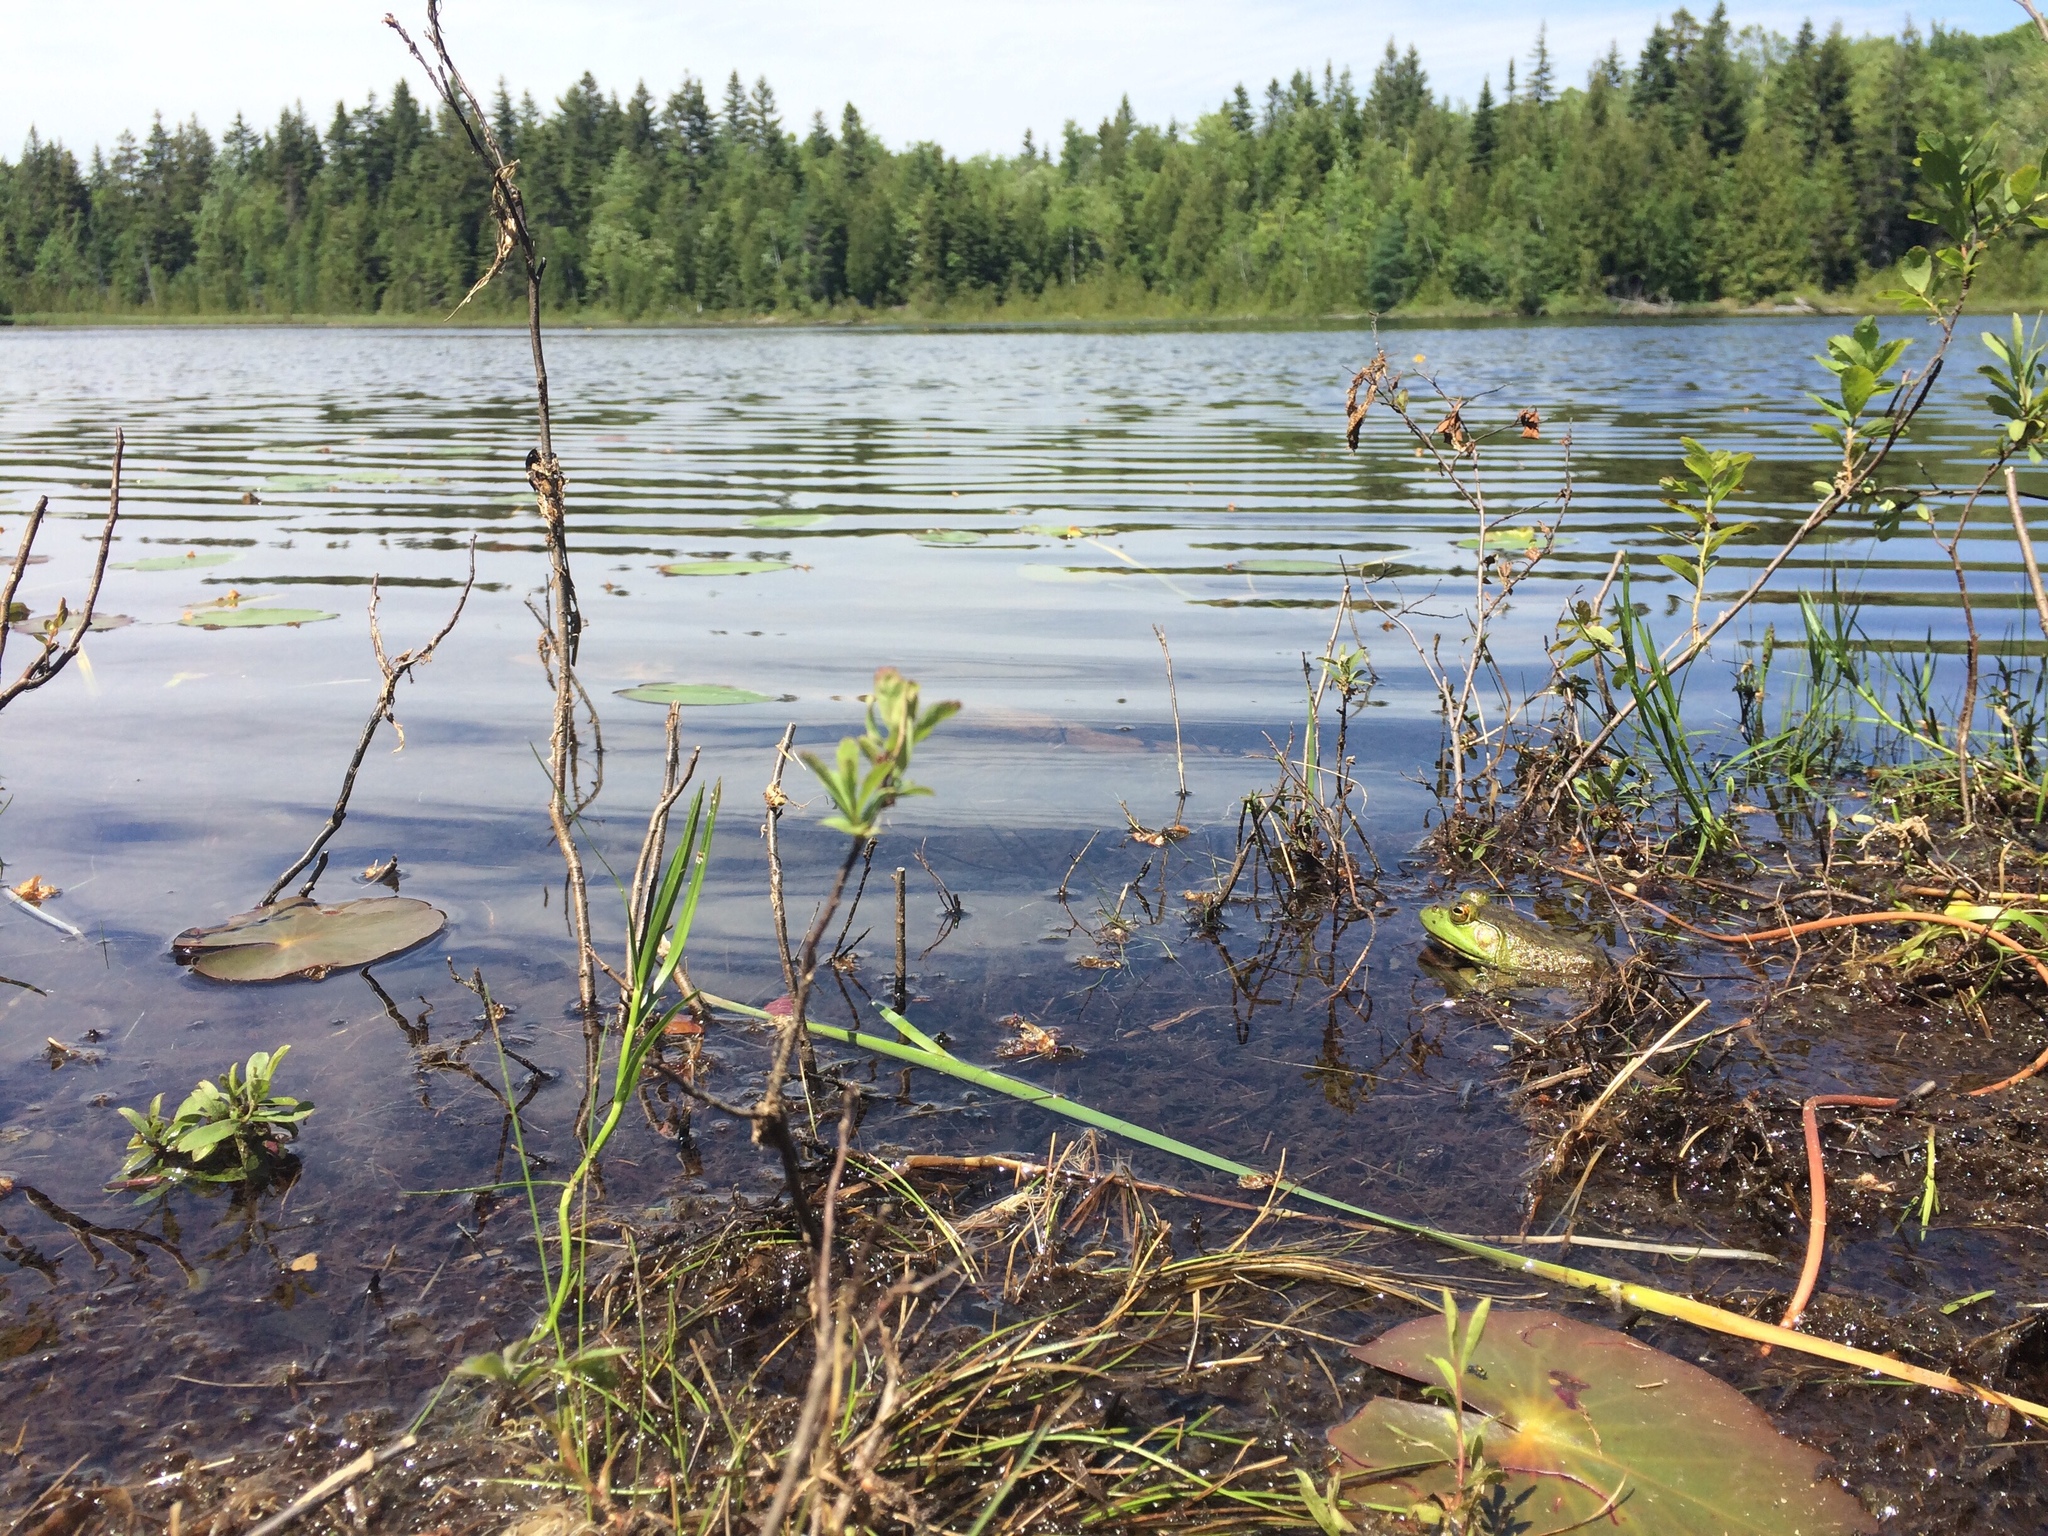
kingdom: Animalia
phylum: Chordata
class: Amphibia
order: Anura
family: Ranidae
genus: Lithobates
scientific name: Lithobates catesbeianus
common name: American bullfrog
